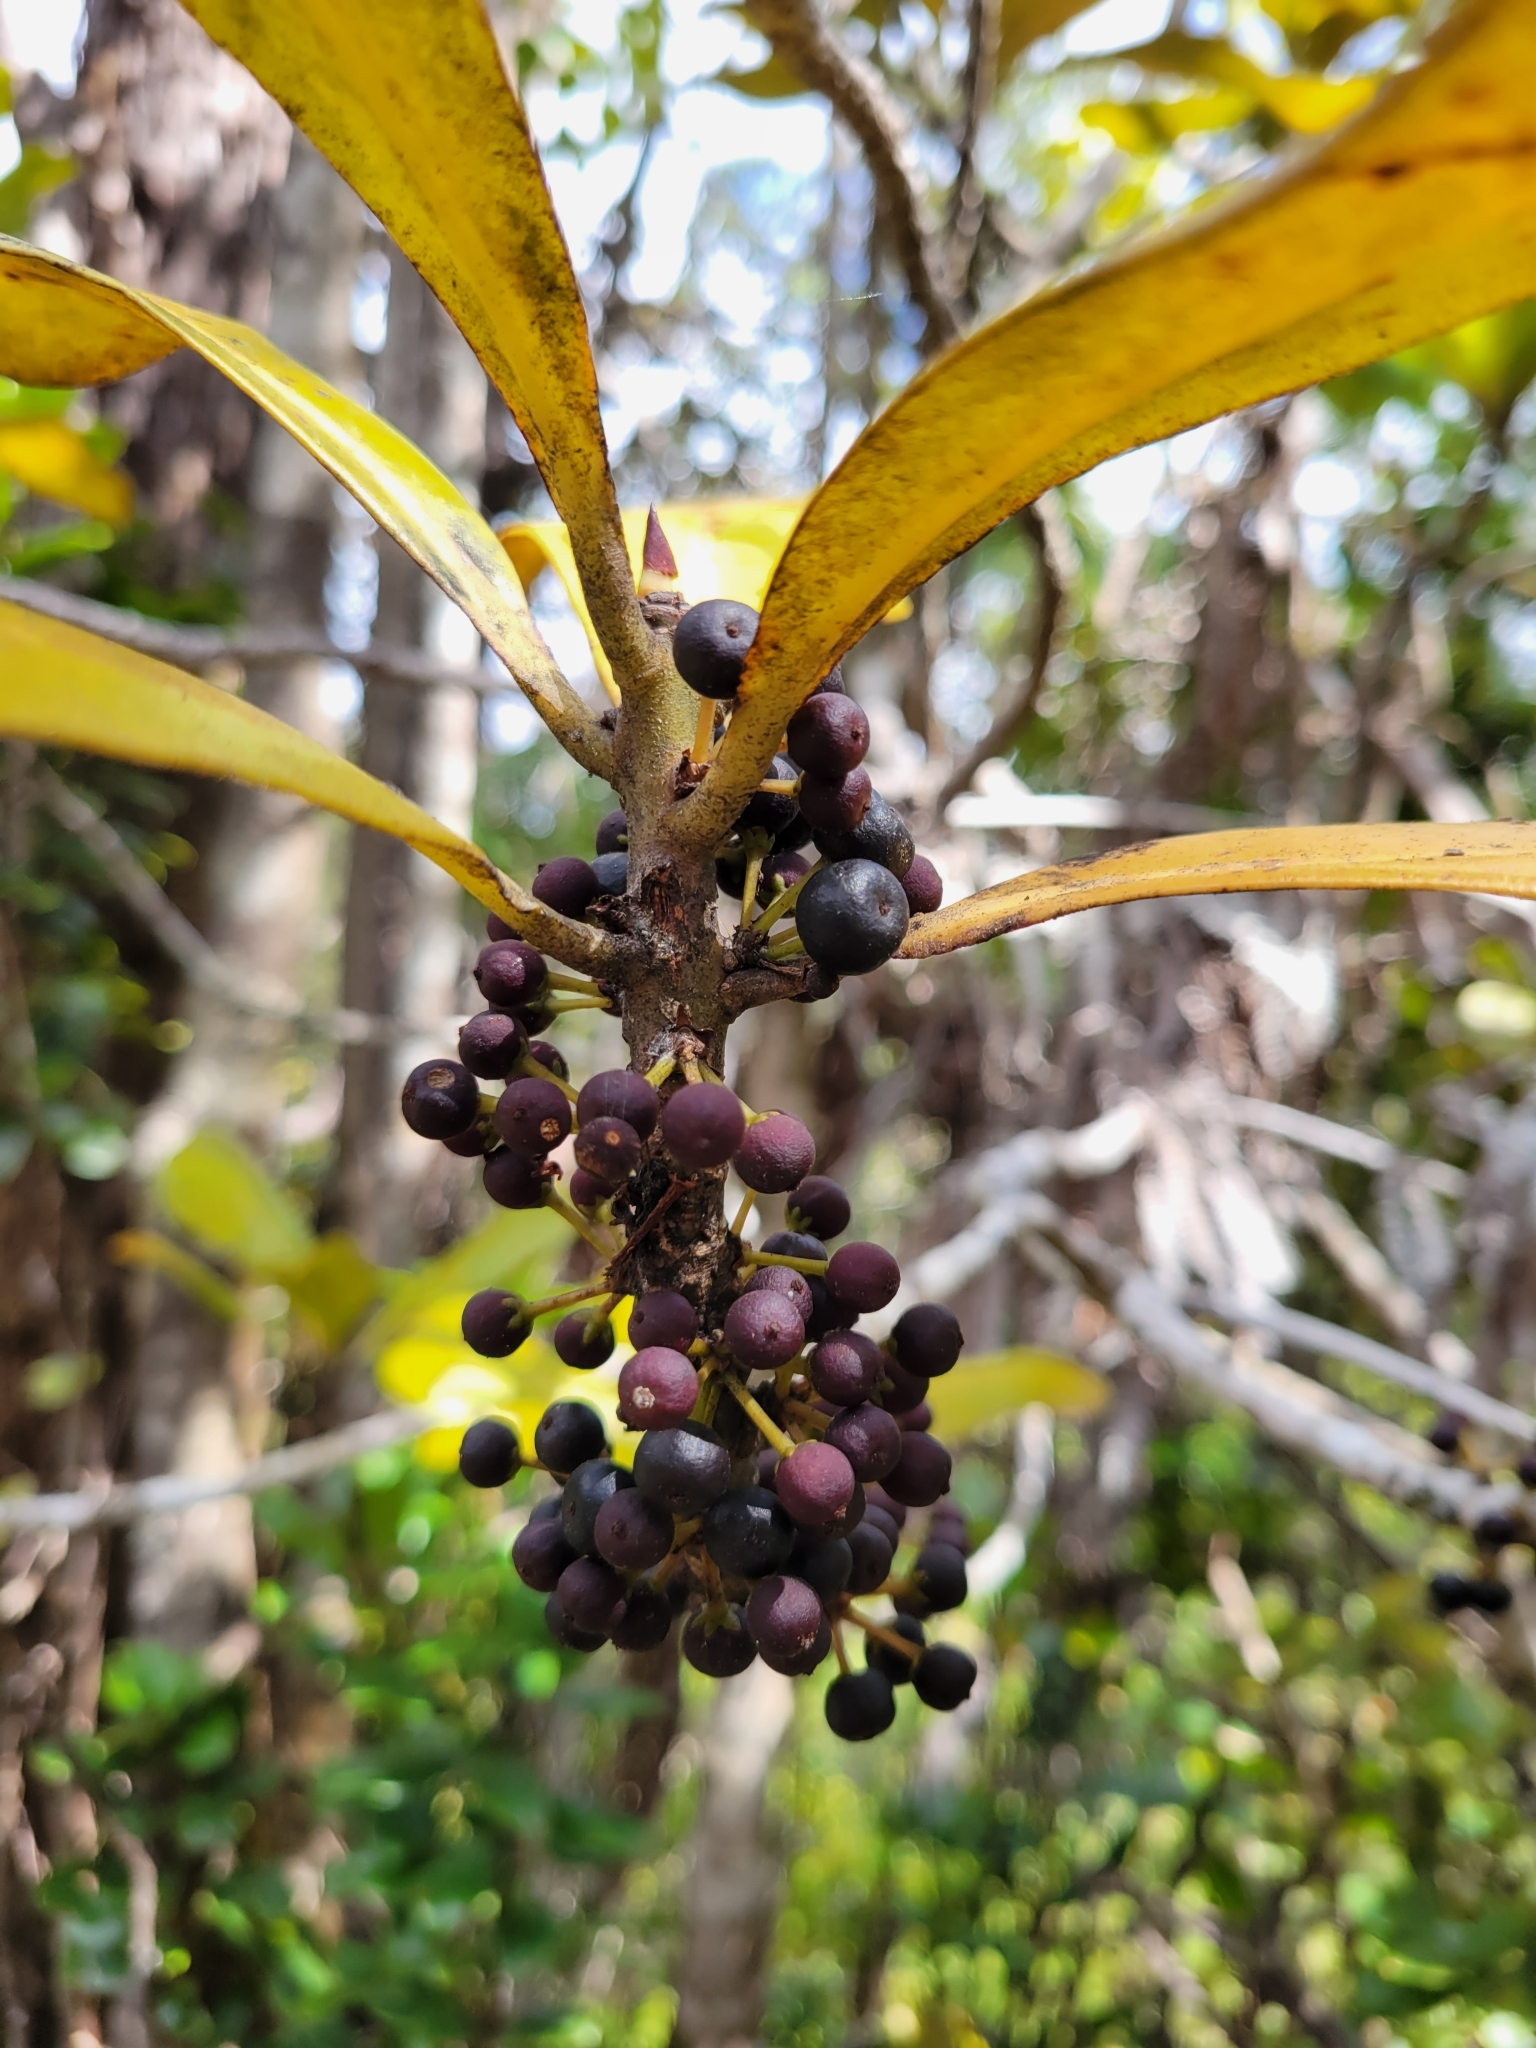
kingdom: Plantae
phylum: Tracheophyta
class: Magnoliopsida
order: Ericales
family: Primulaceae
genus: Myrsine
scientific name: Myrsine lessertiana
